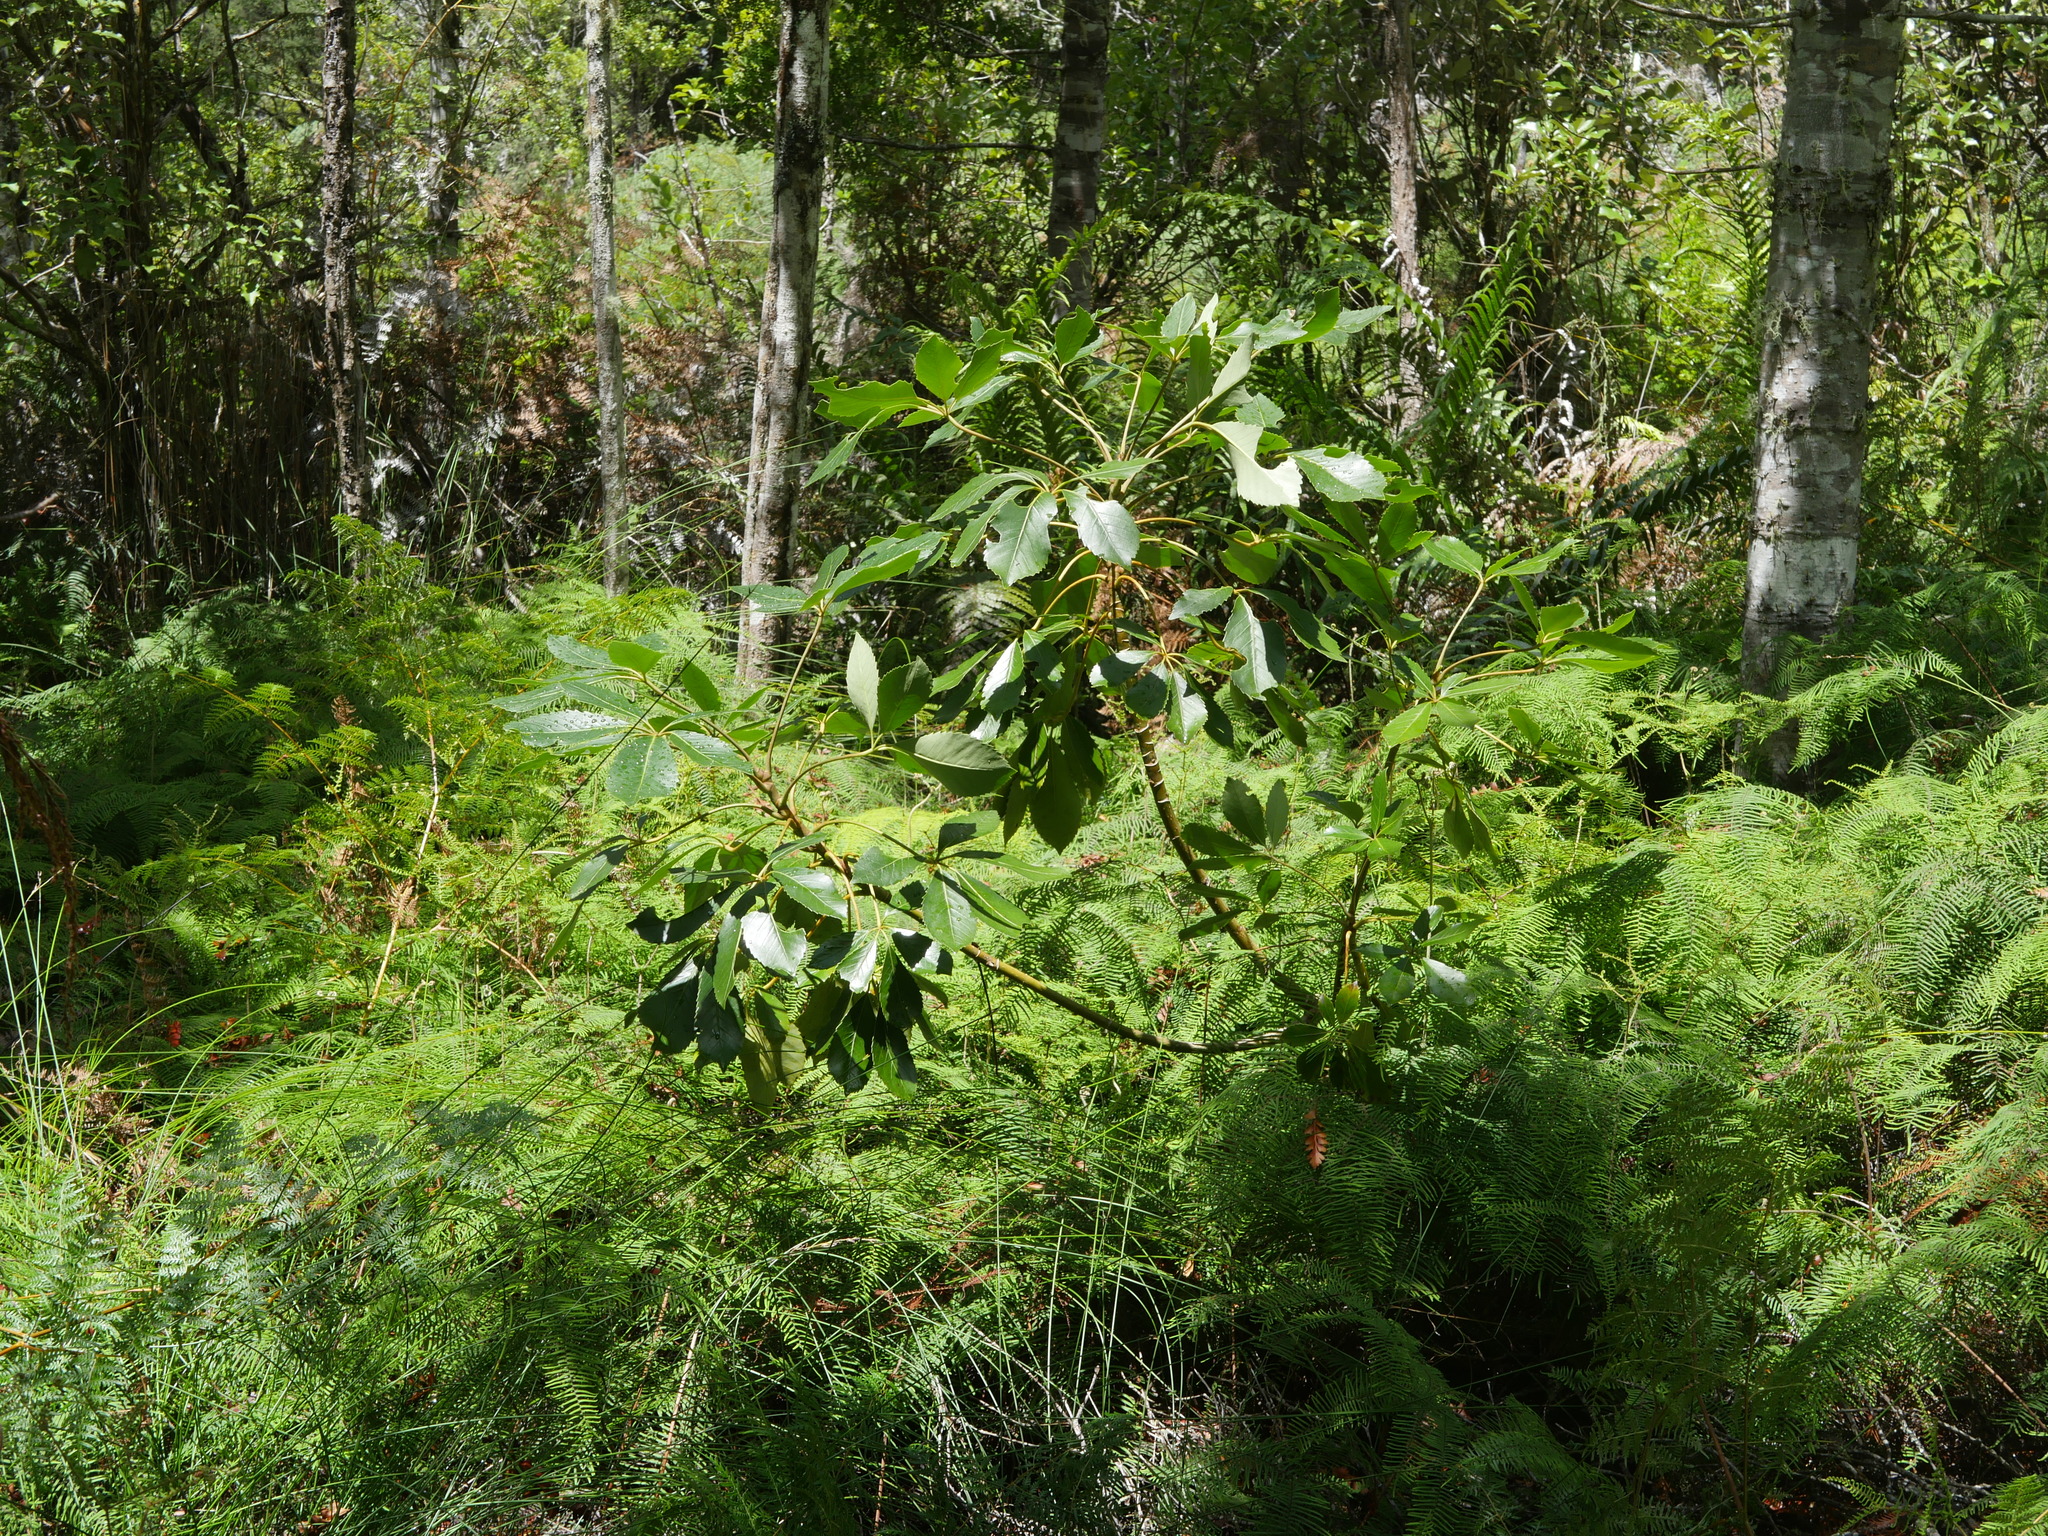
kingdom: Plantae
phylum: Tracheophyta
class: Magnoliopsida
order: Apiales
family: Araliaceae
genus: Neopanax
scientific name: Neopanax arboreus
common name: Five-fingers
